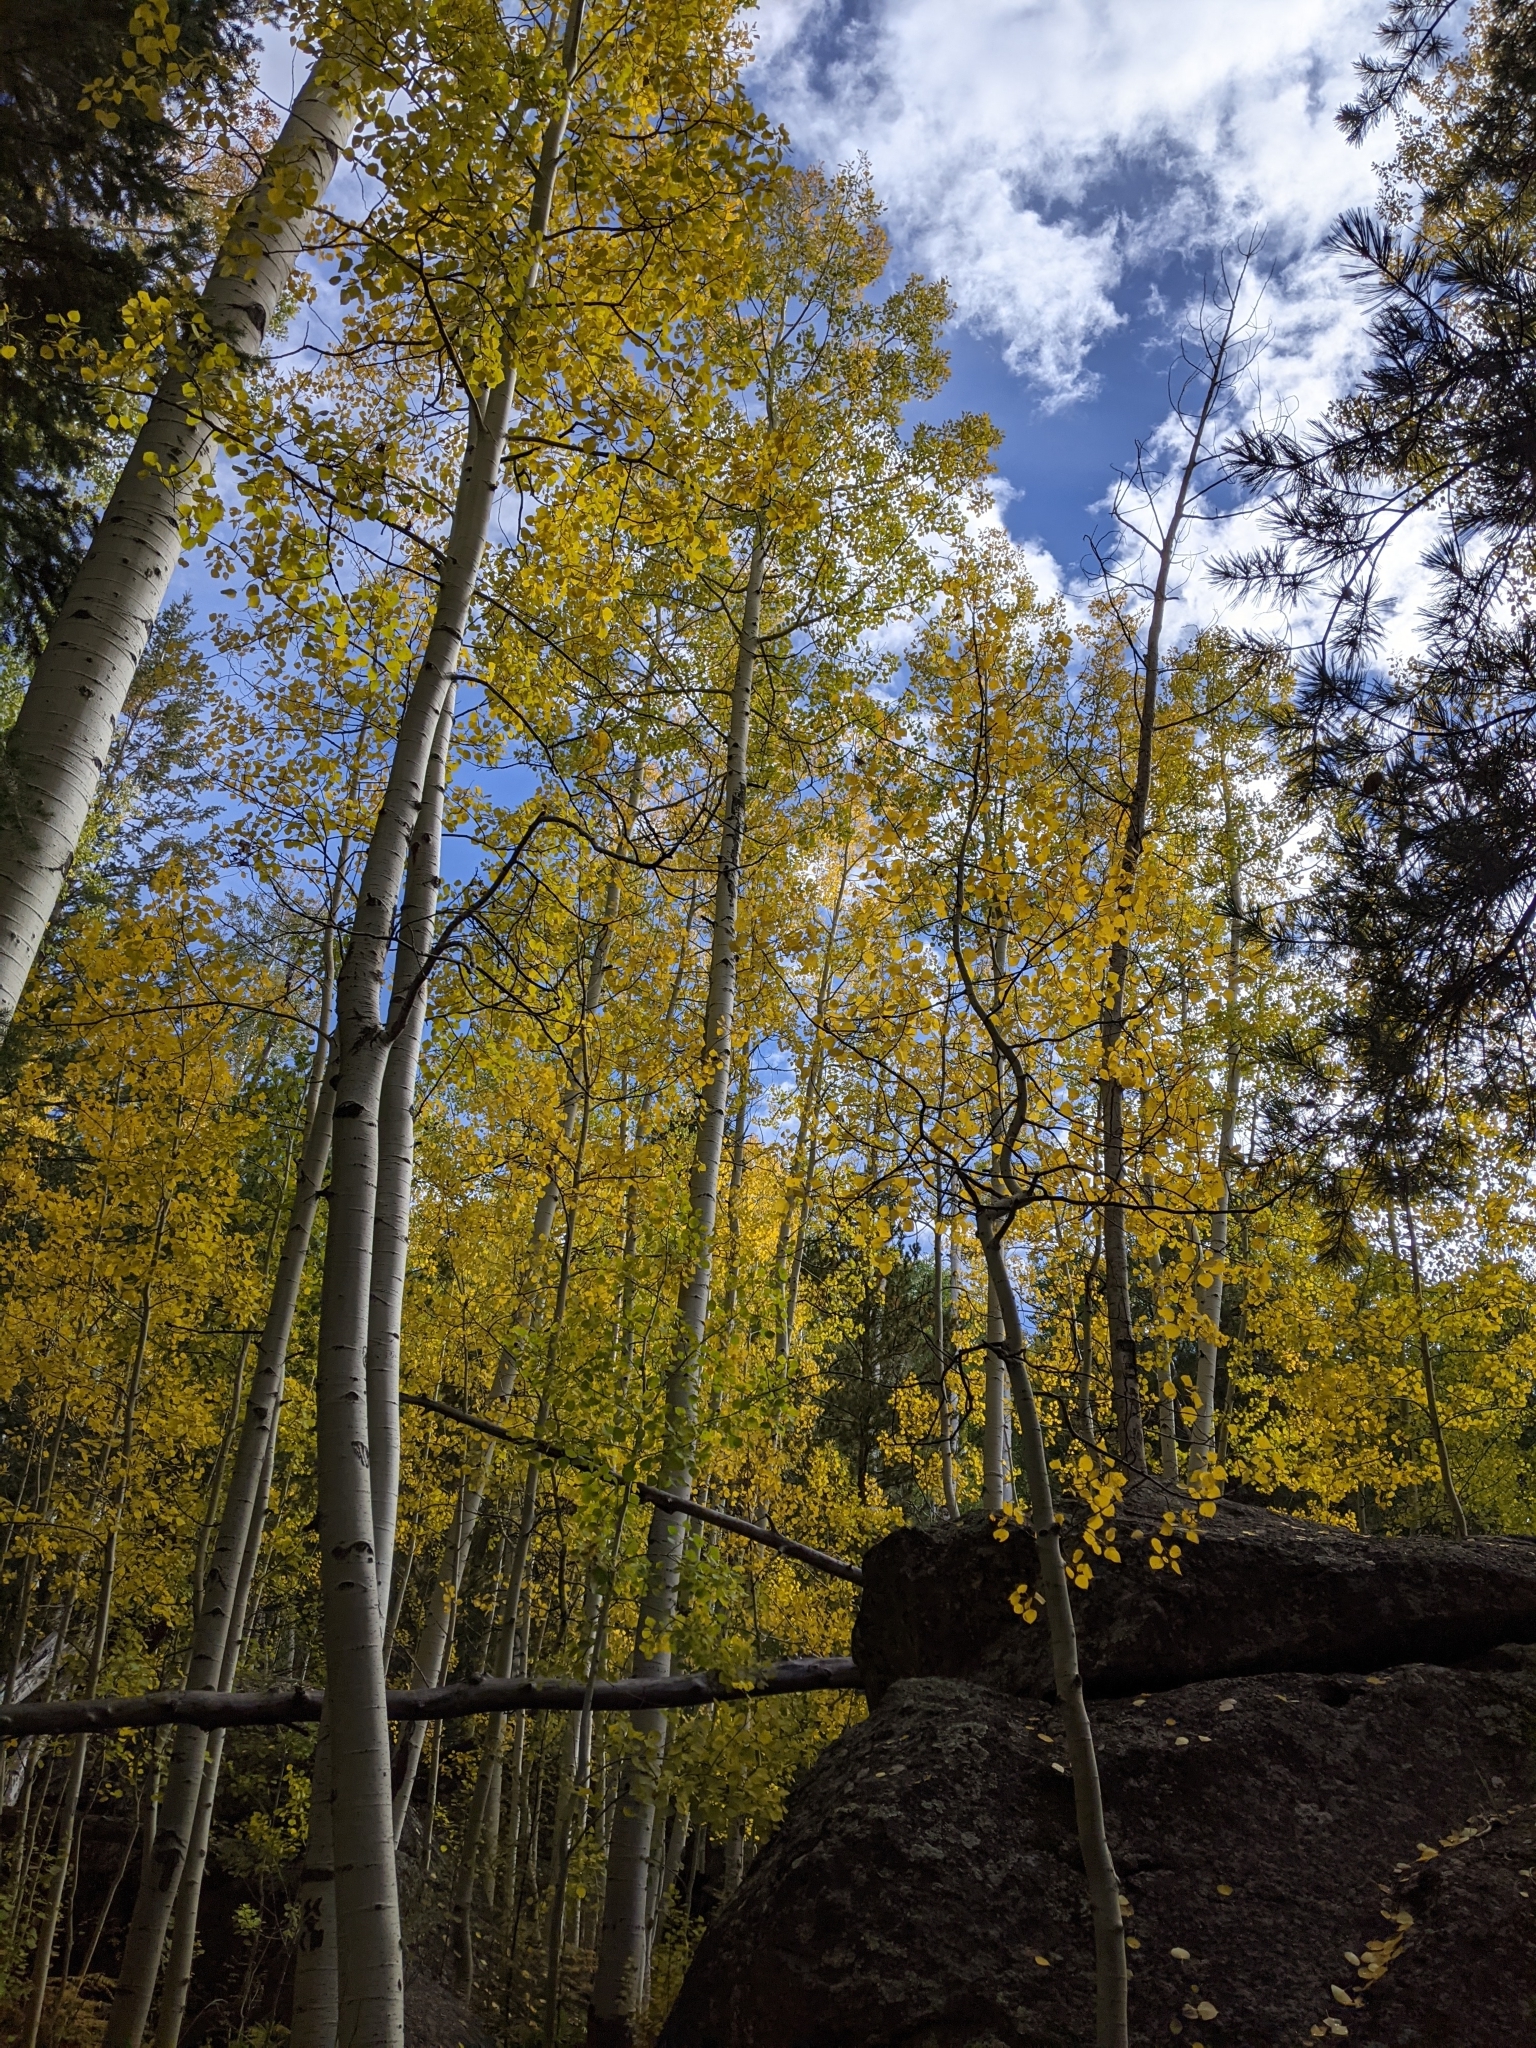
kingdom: Plantae
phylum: Tracheophyta
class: Magnoliopsida
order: Malpighiales
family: Salicaceae
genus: Populus
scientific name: Populus tremuloides
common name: Quaking aspen
